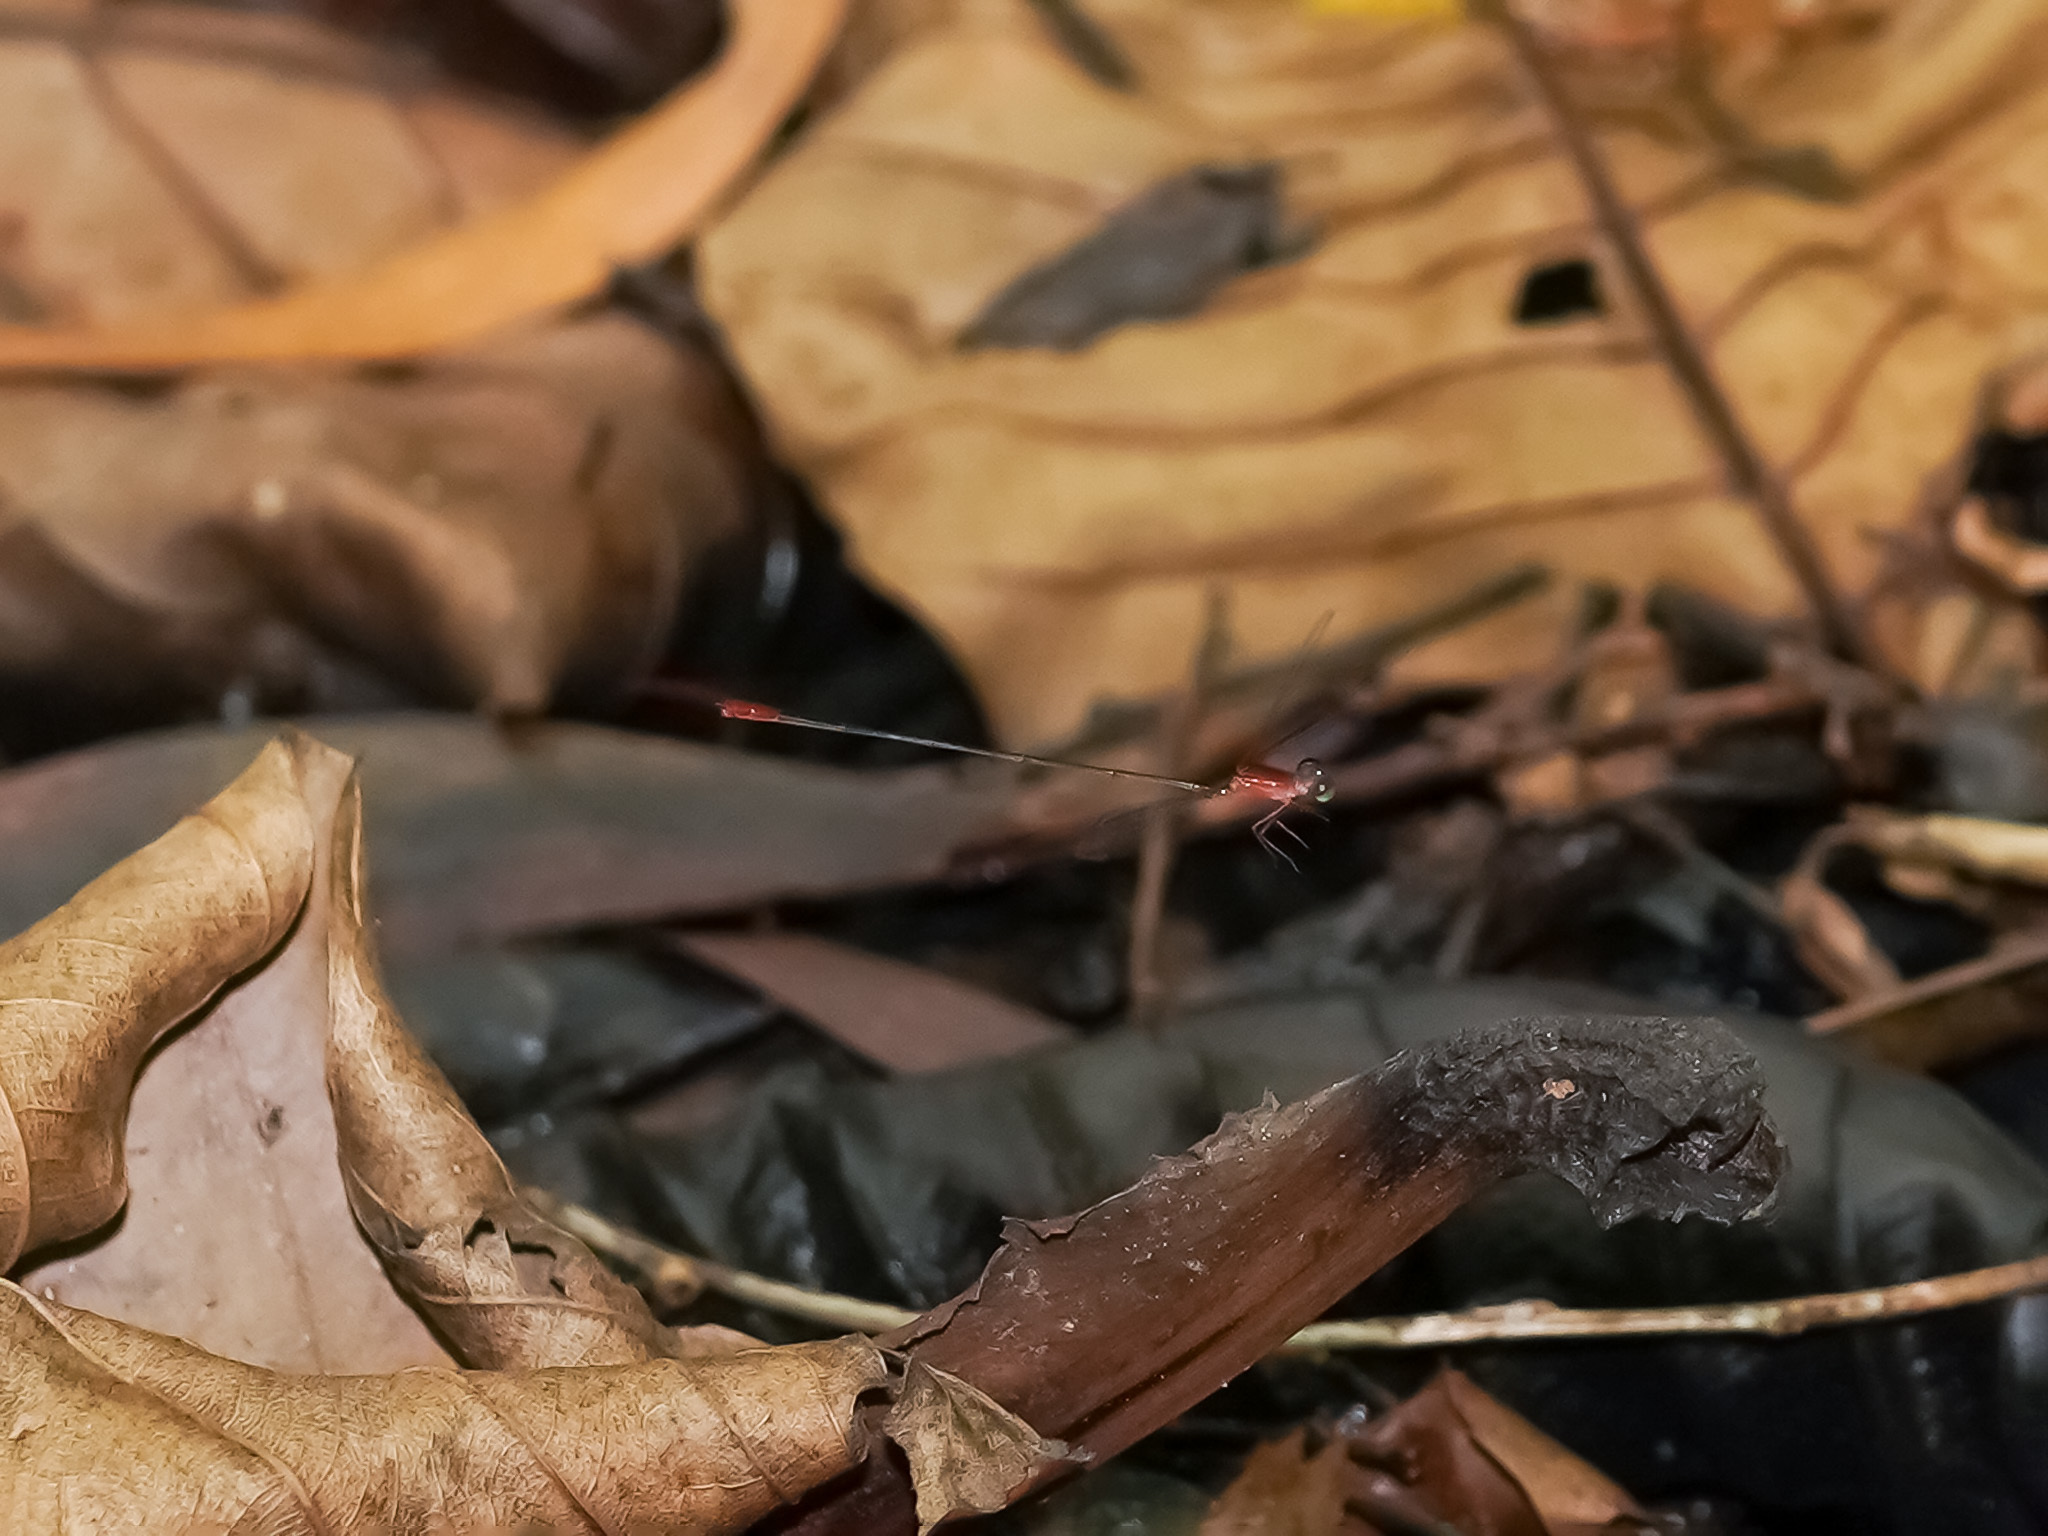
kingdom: Animalia
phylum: Arthropoda
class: Insecta
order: Odonata
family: Coenagrionidae
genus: Teinobasis
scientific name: Teinobasis ruficollis
